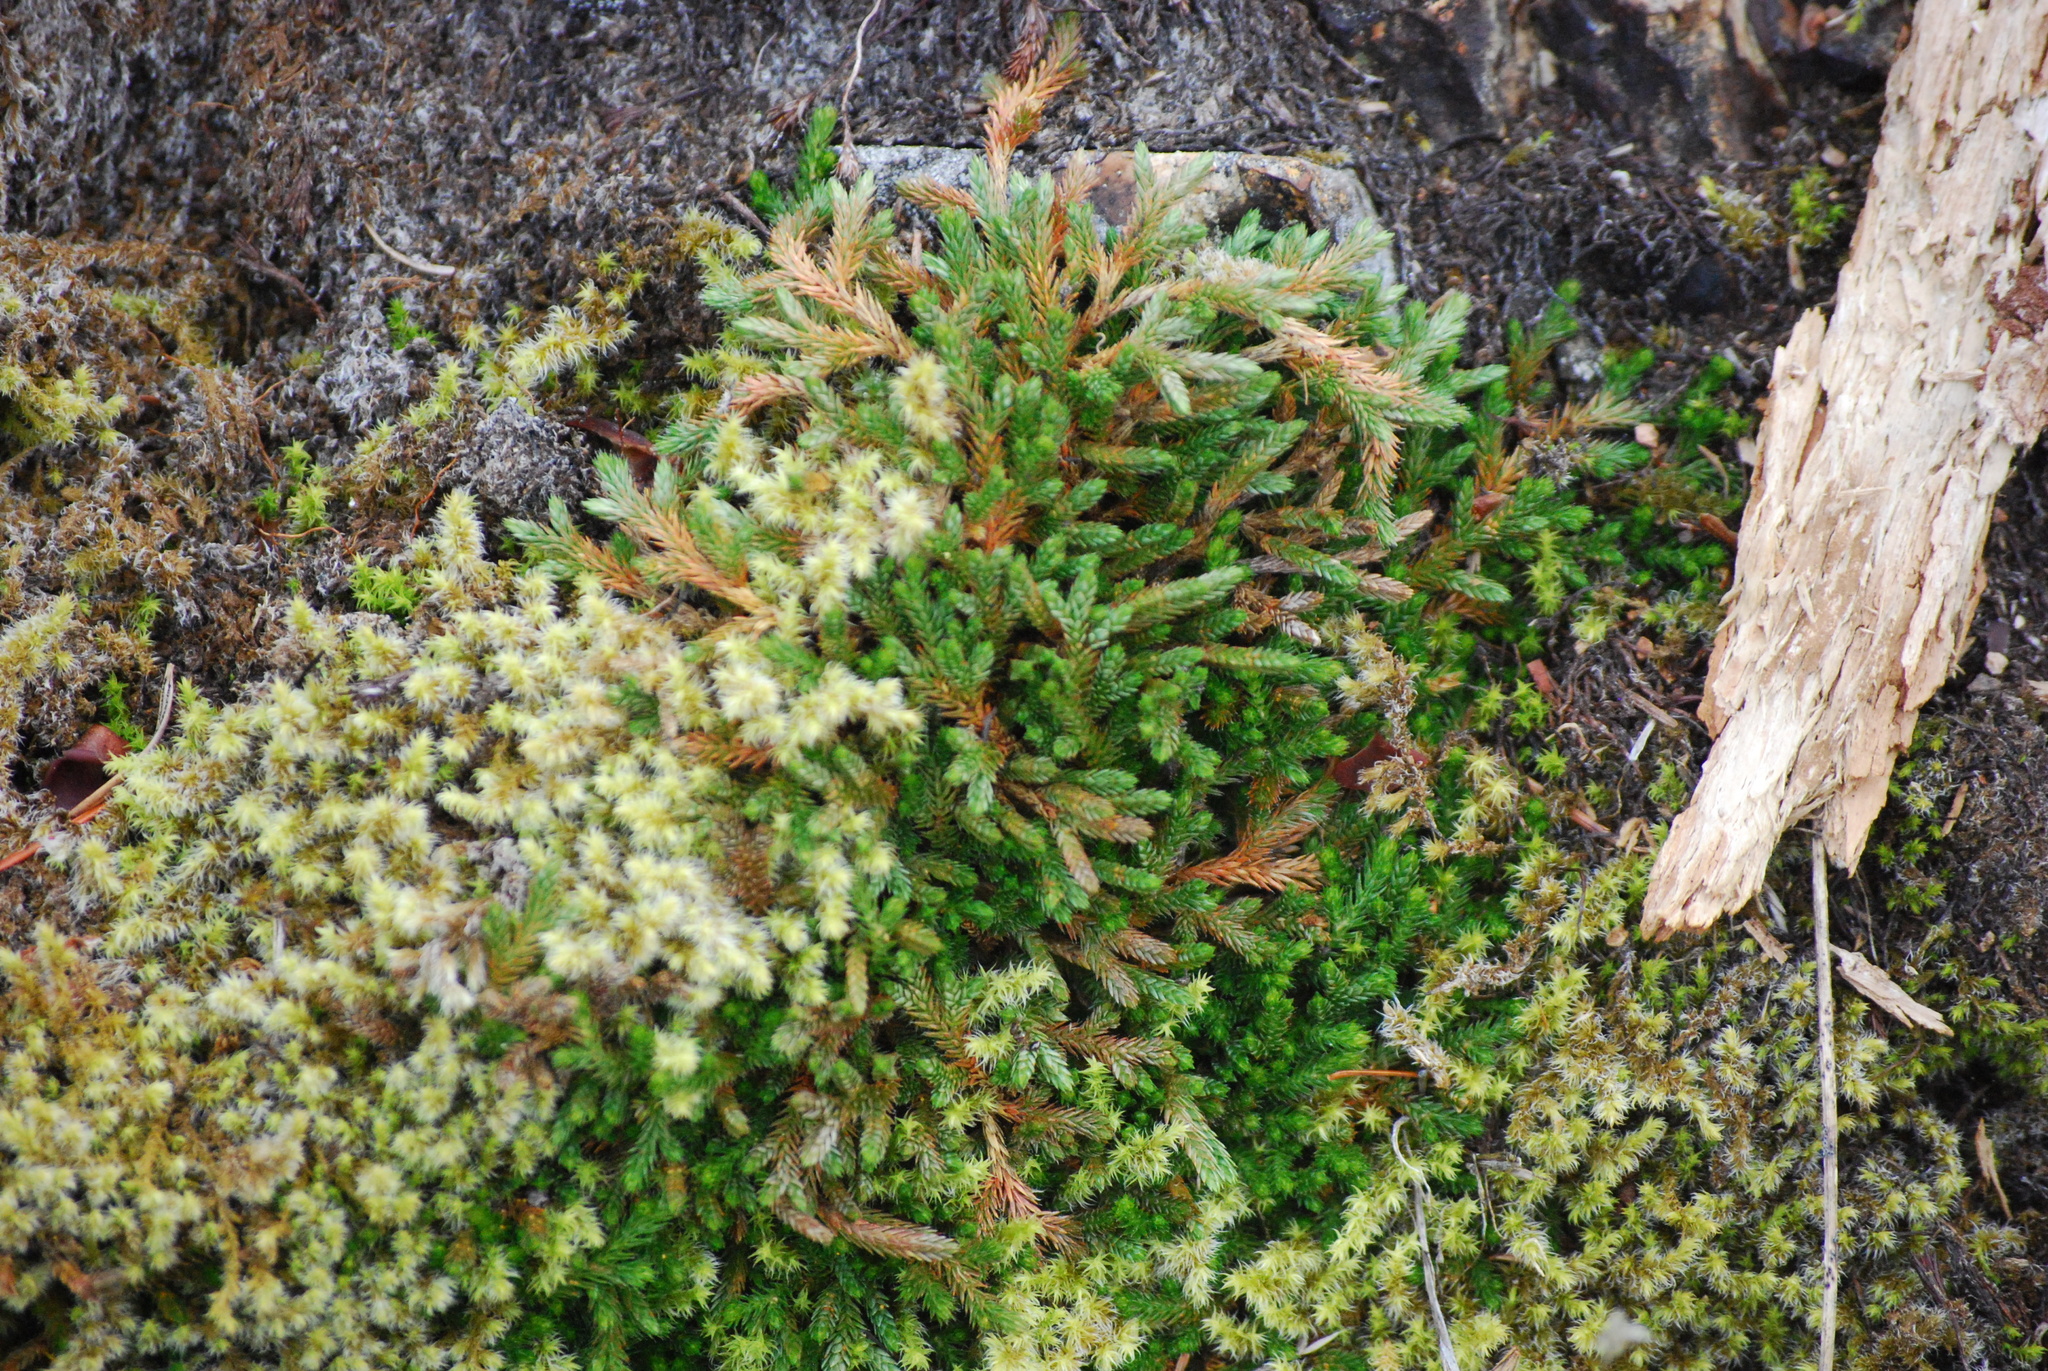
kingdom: Plantae
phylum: Tracheophyta
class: Lycopodiopsida
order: Selaginellales
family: Selaginellaceae
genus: Selaginella
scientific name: Selaginella wallacei
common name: Wallace's selaginella
